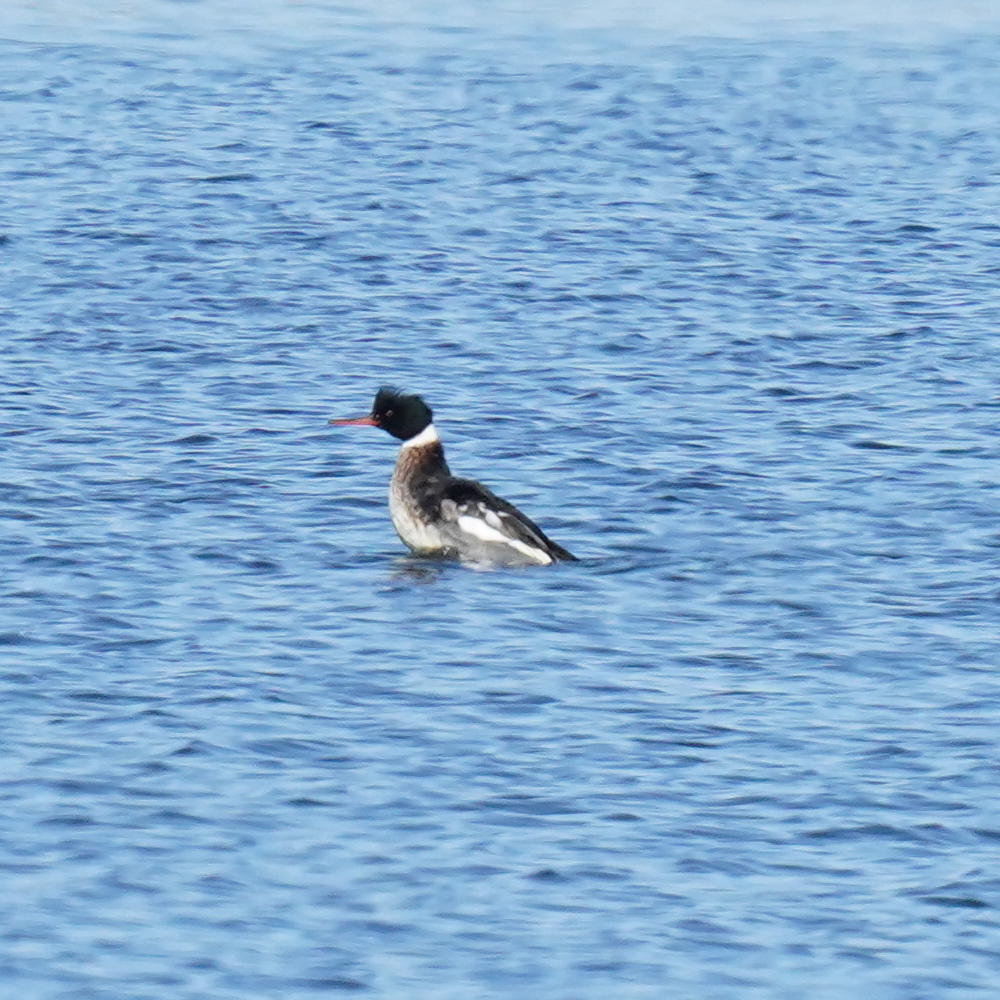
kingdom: Animalia
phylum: Chordata
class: Aves
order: Anseriformes
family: Anatidae
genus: Mergus
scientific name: Mergus serrator
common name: Red-breasted merganser
